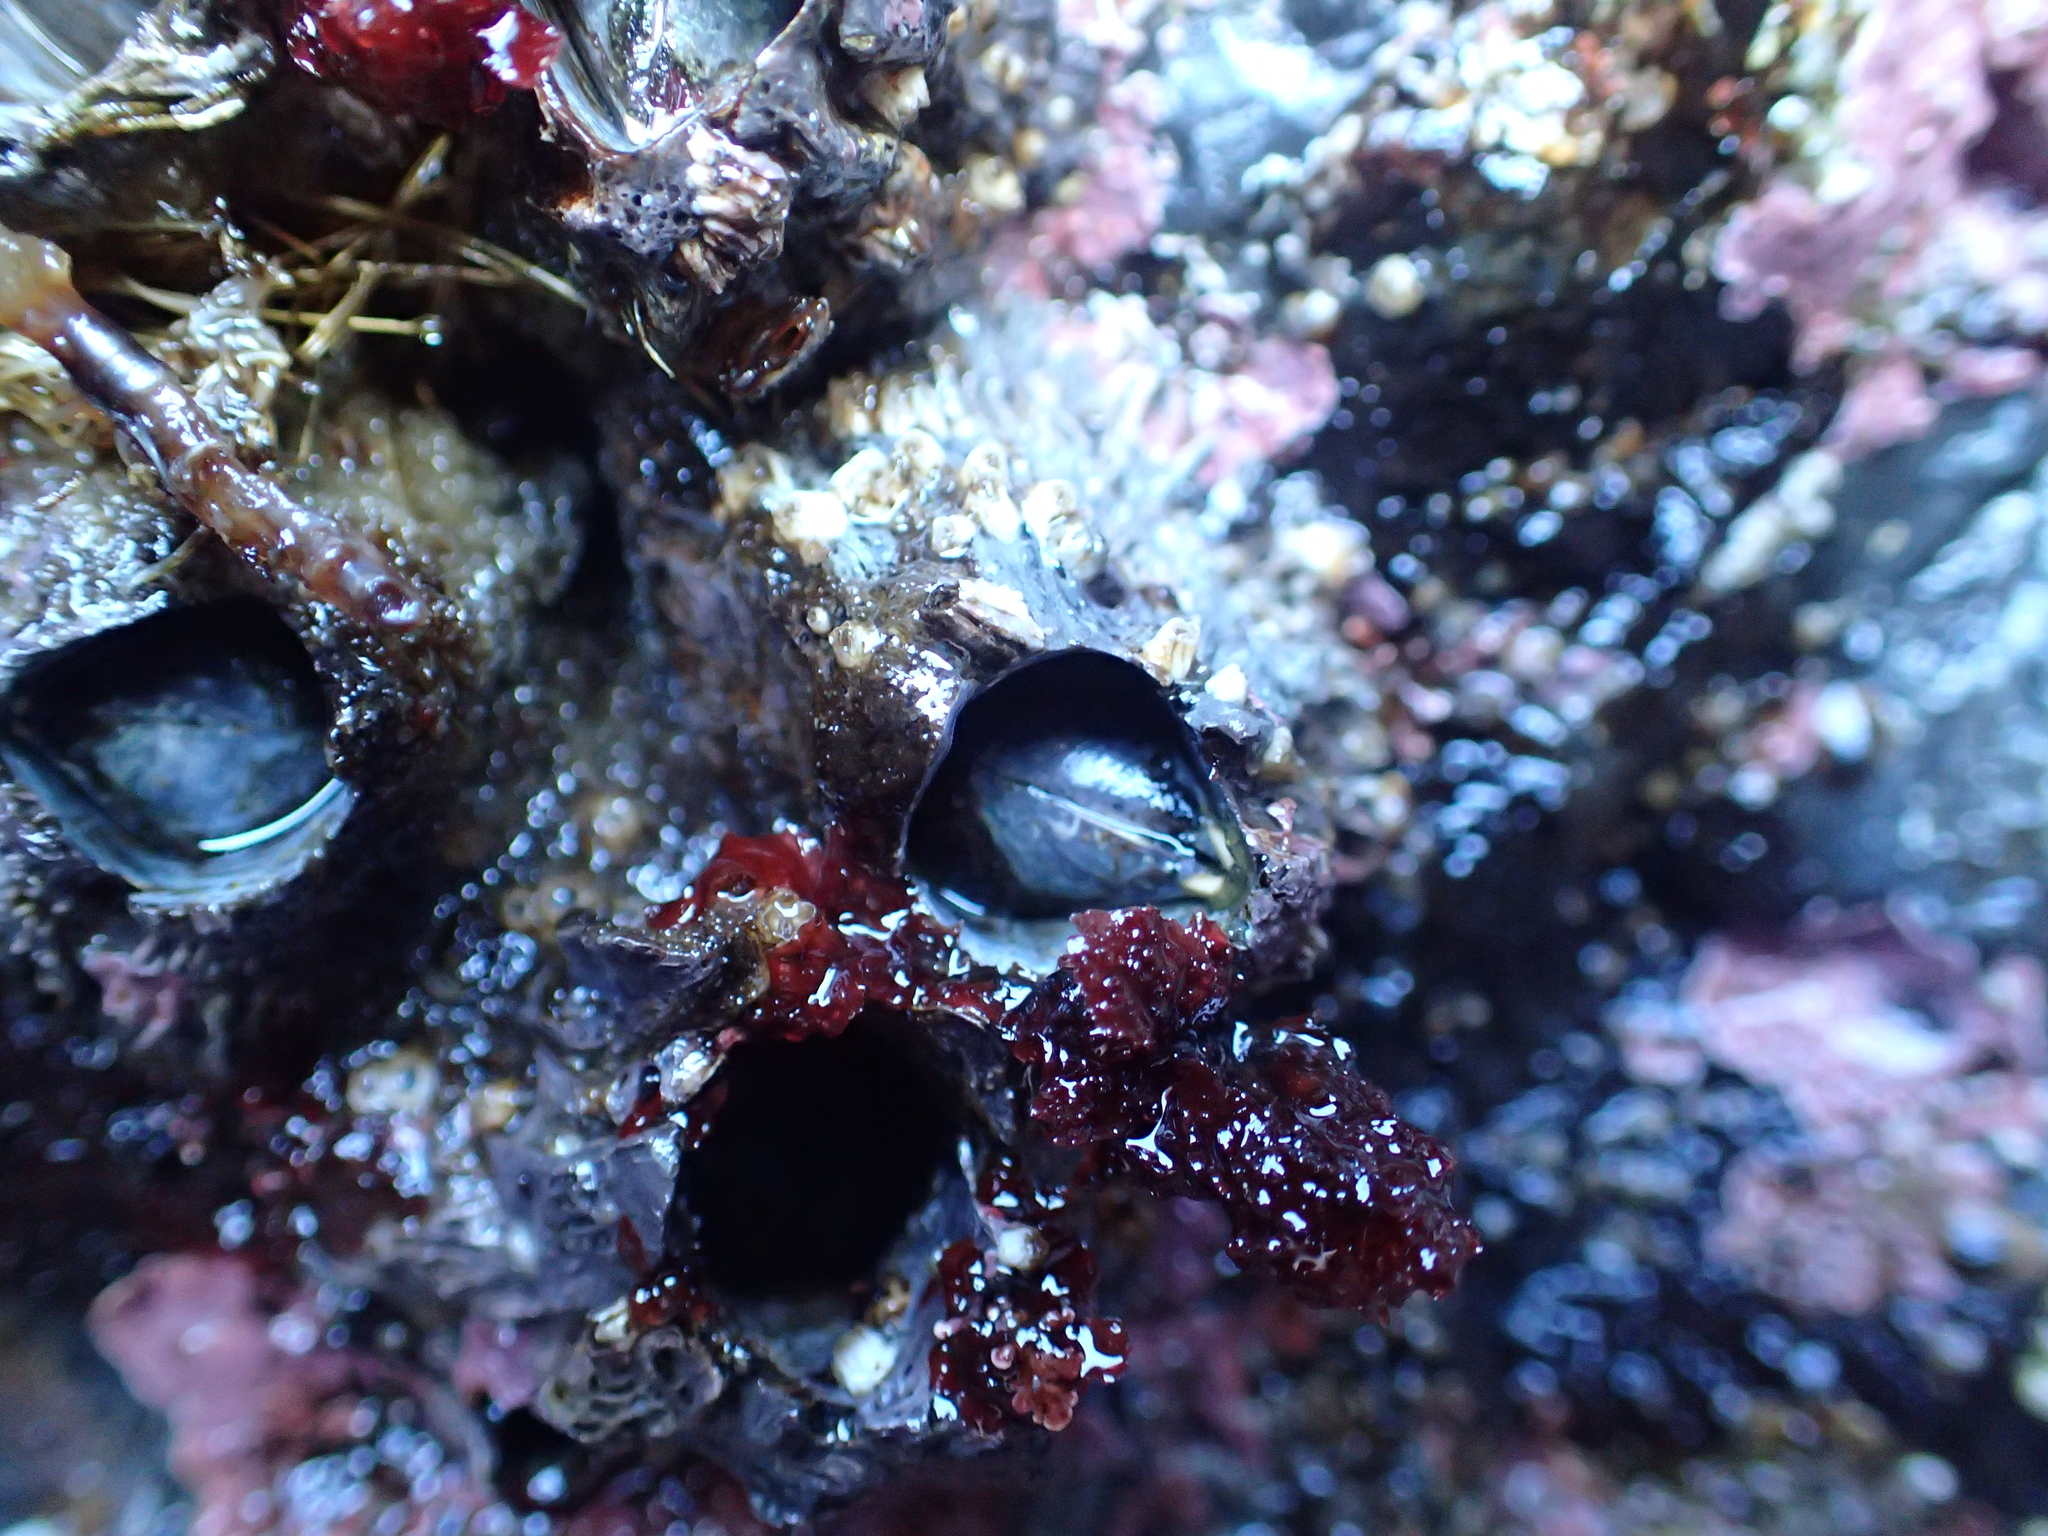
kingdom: Animalia
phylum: Arthropoda
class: Maxillopoda
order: Sessilia
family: Archaeobalanidae
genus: Semibalanus
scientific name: Semibalanus cariosus
